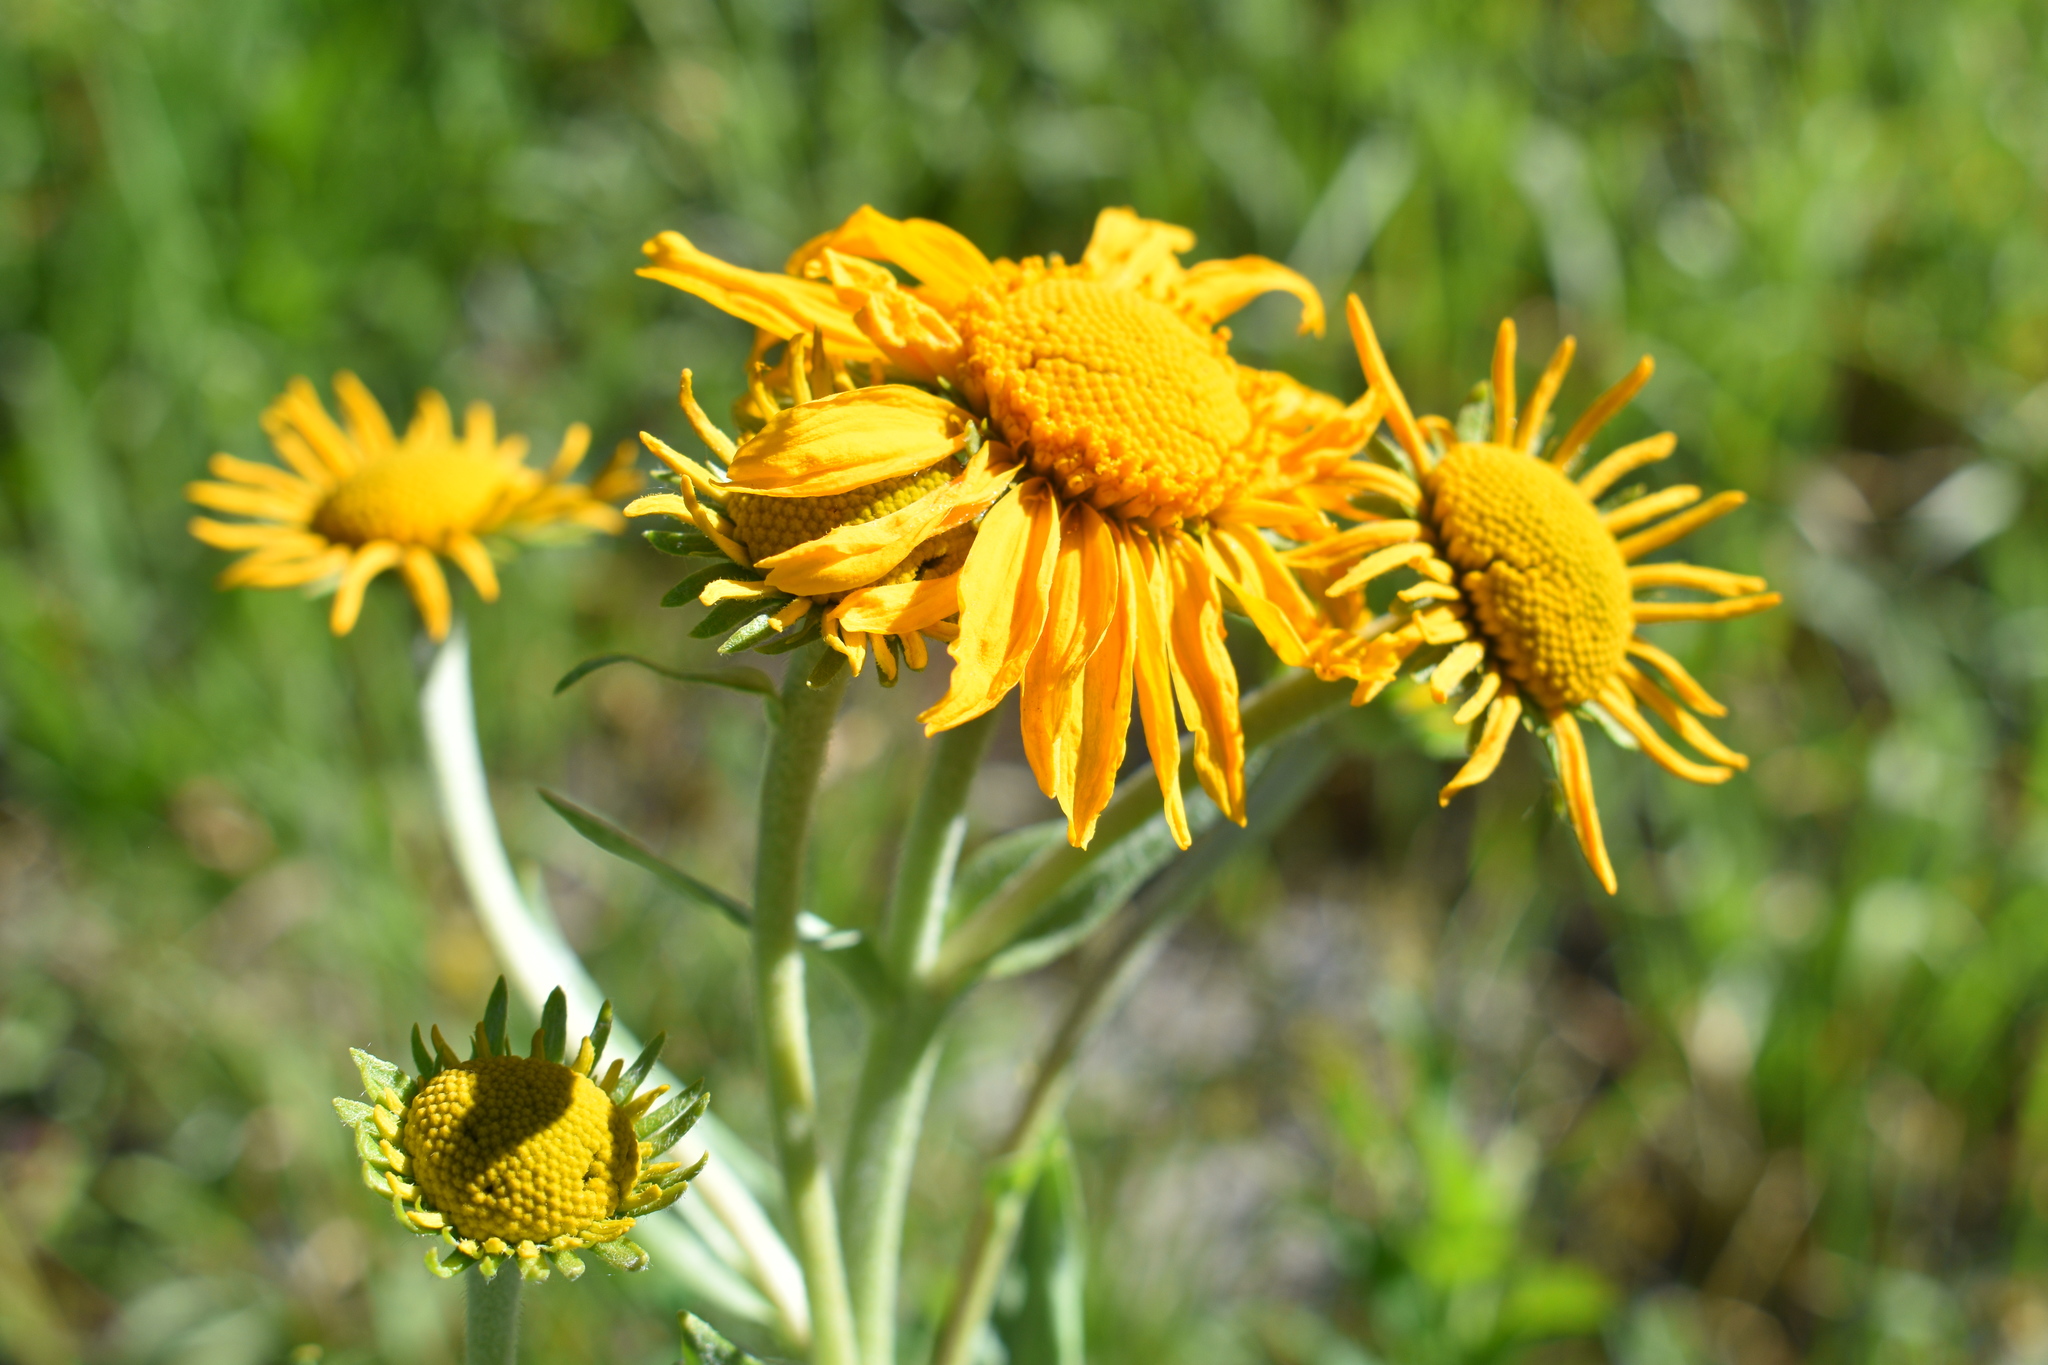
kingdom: Plantae
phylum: Tracheophyta
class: Magnoliopsida
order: Asterales
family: Asteraceae
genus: Hymenoxys
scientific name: Hymenoxys hoopesii
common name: Orange-sneezeweed
